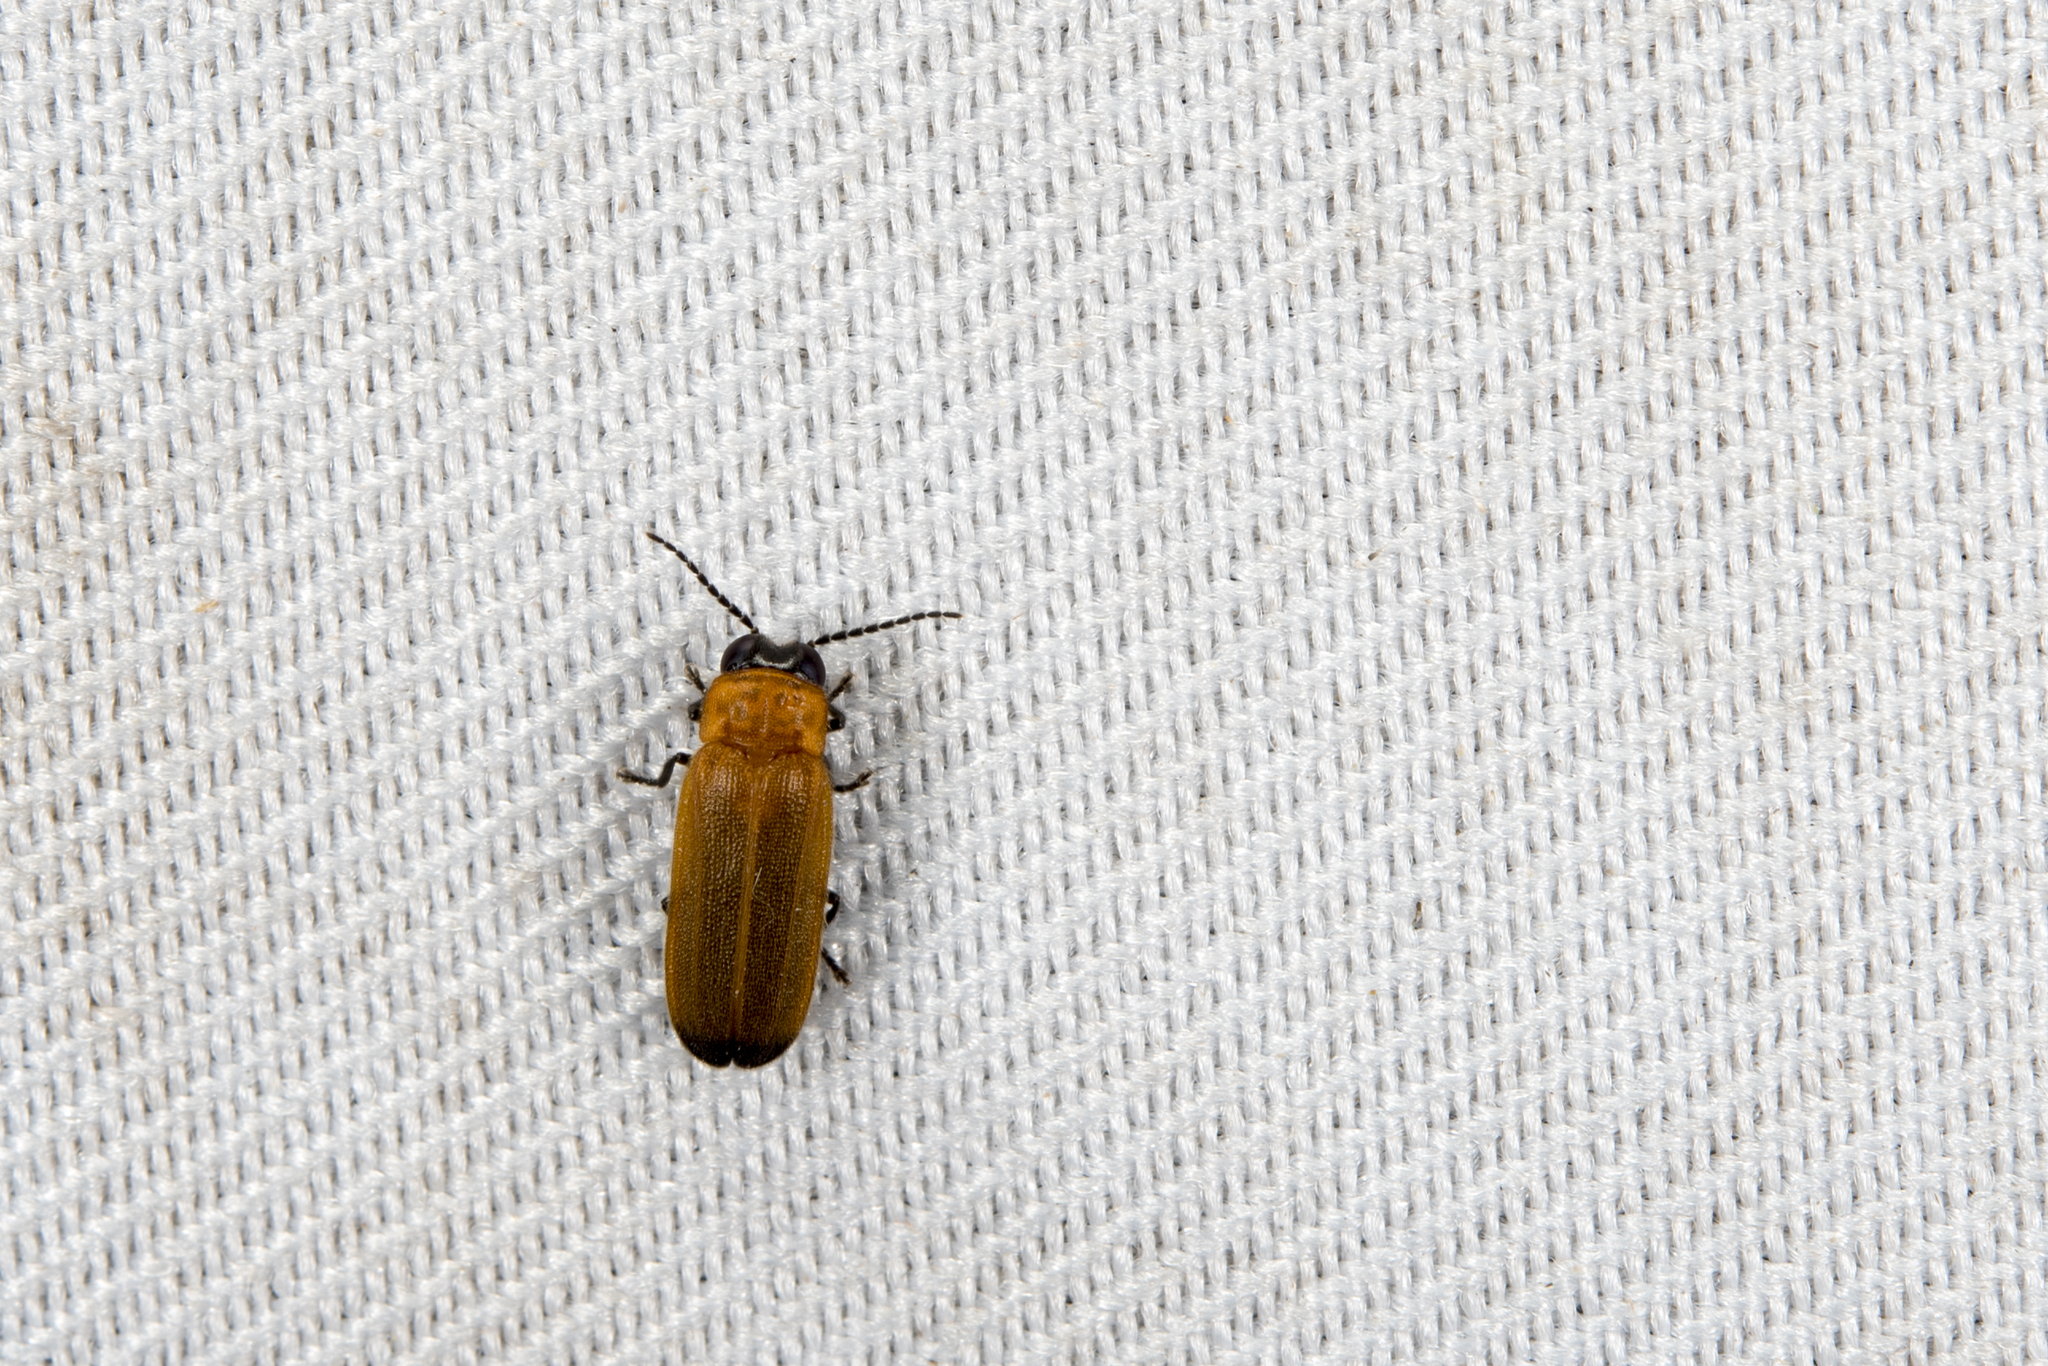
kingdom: Animalia
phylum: Arthropoda
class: Insecta
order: Coleoptera
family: Lampyridae
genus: Curtos
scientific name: Curtos costipennis
